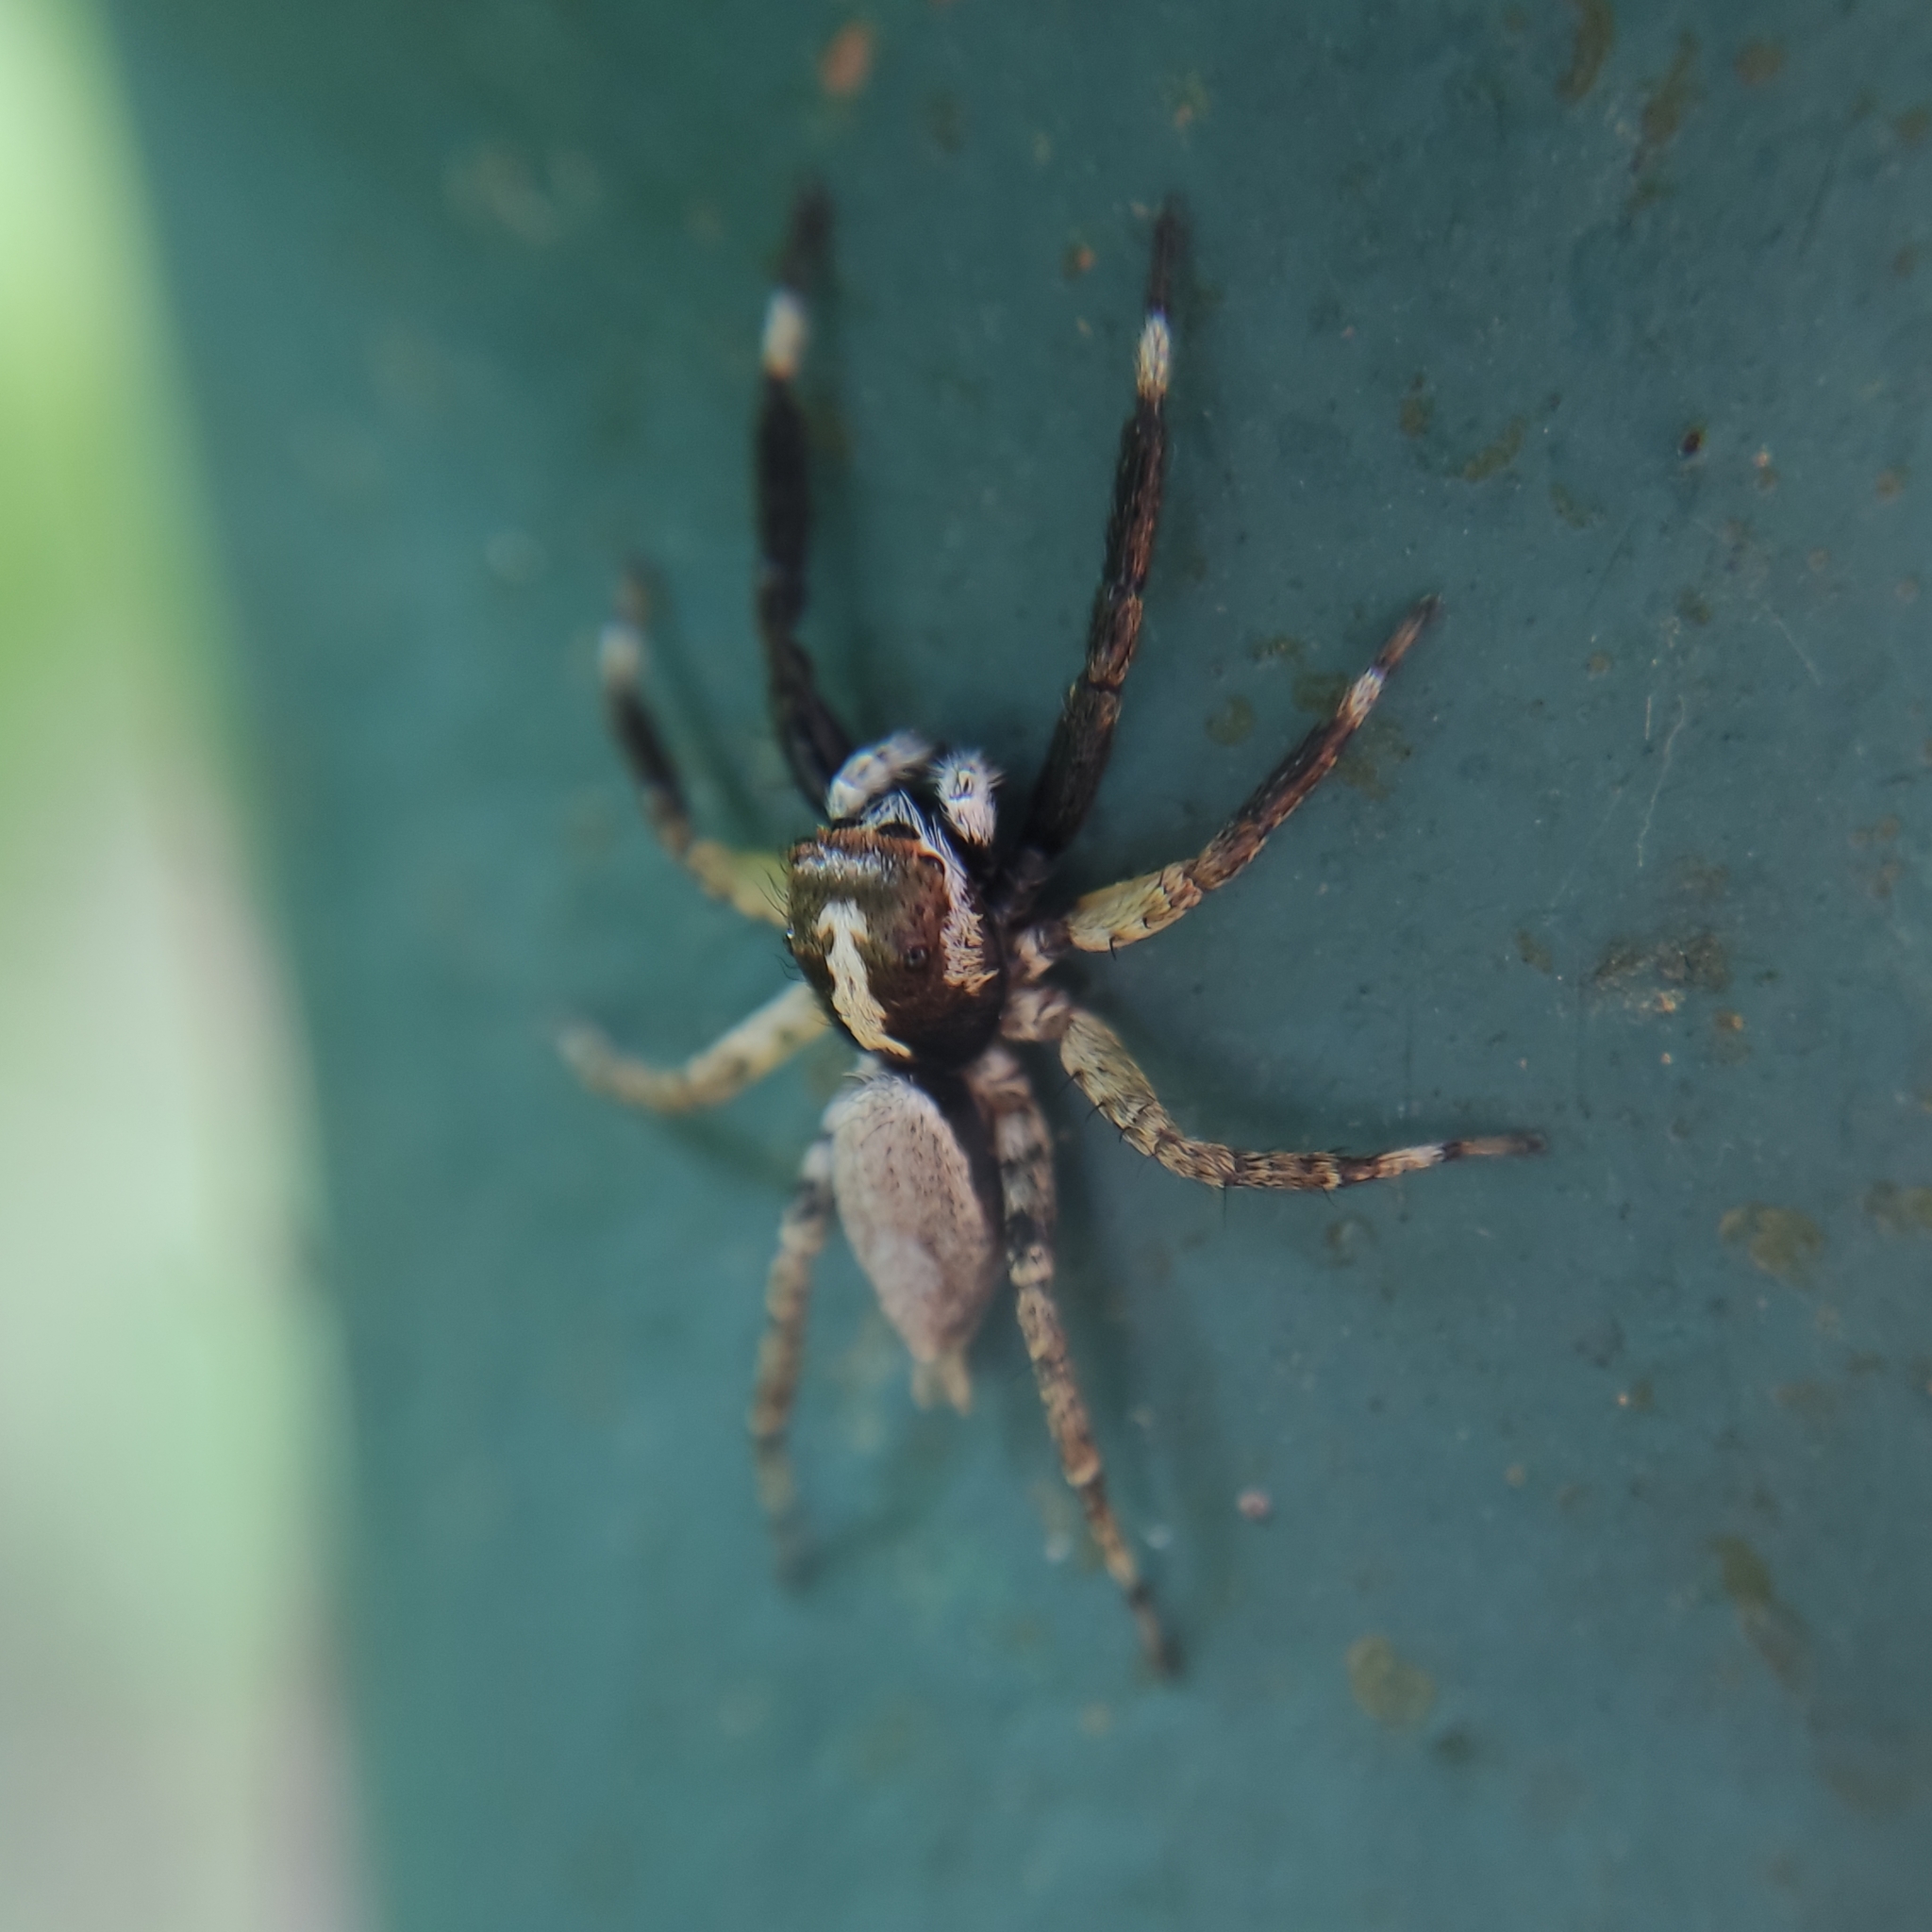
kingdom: Animalia
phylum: Arthropoda
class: Arachnida
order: Araneae
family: Salticidae
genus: Asaphobelis
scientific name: Asaphobelis physonychus
